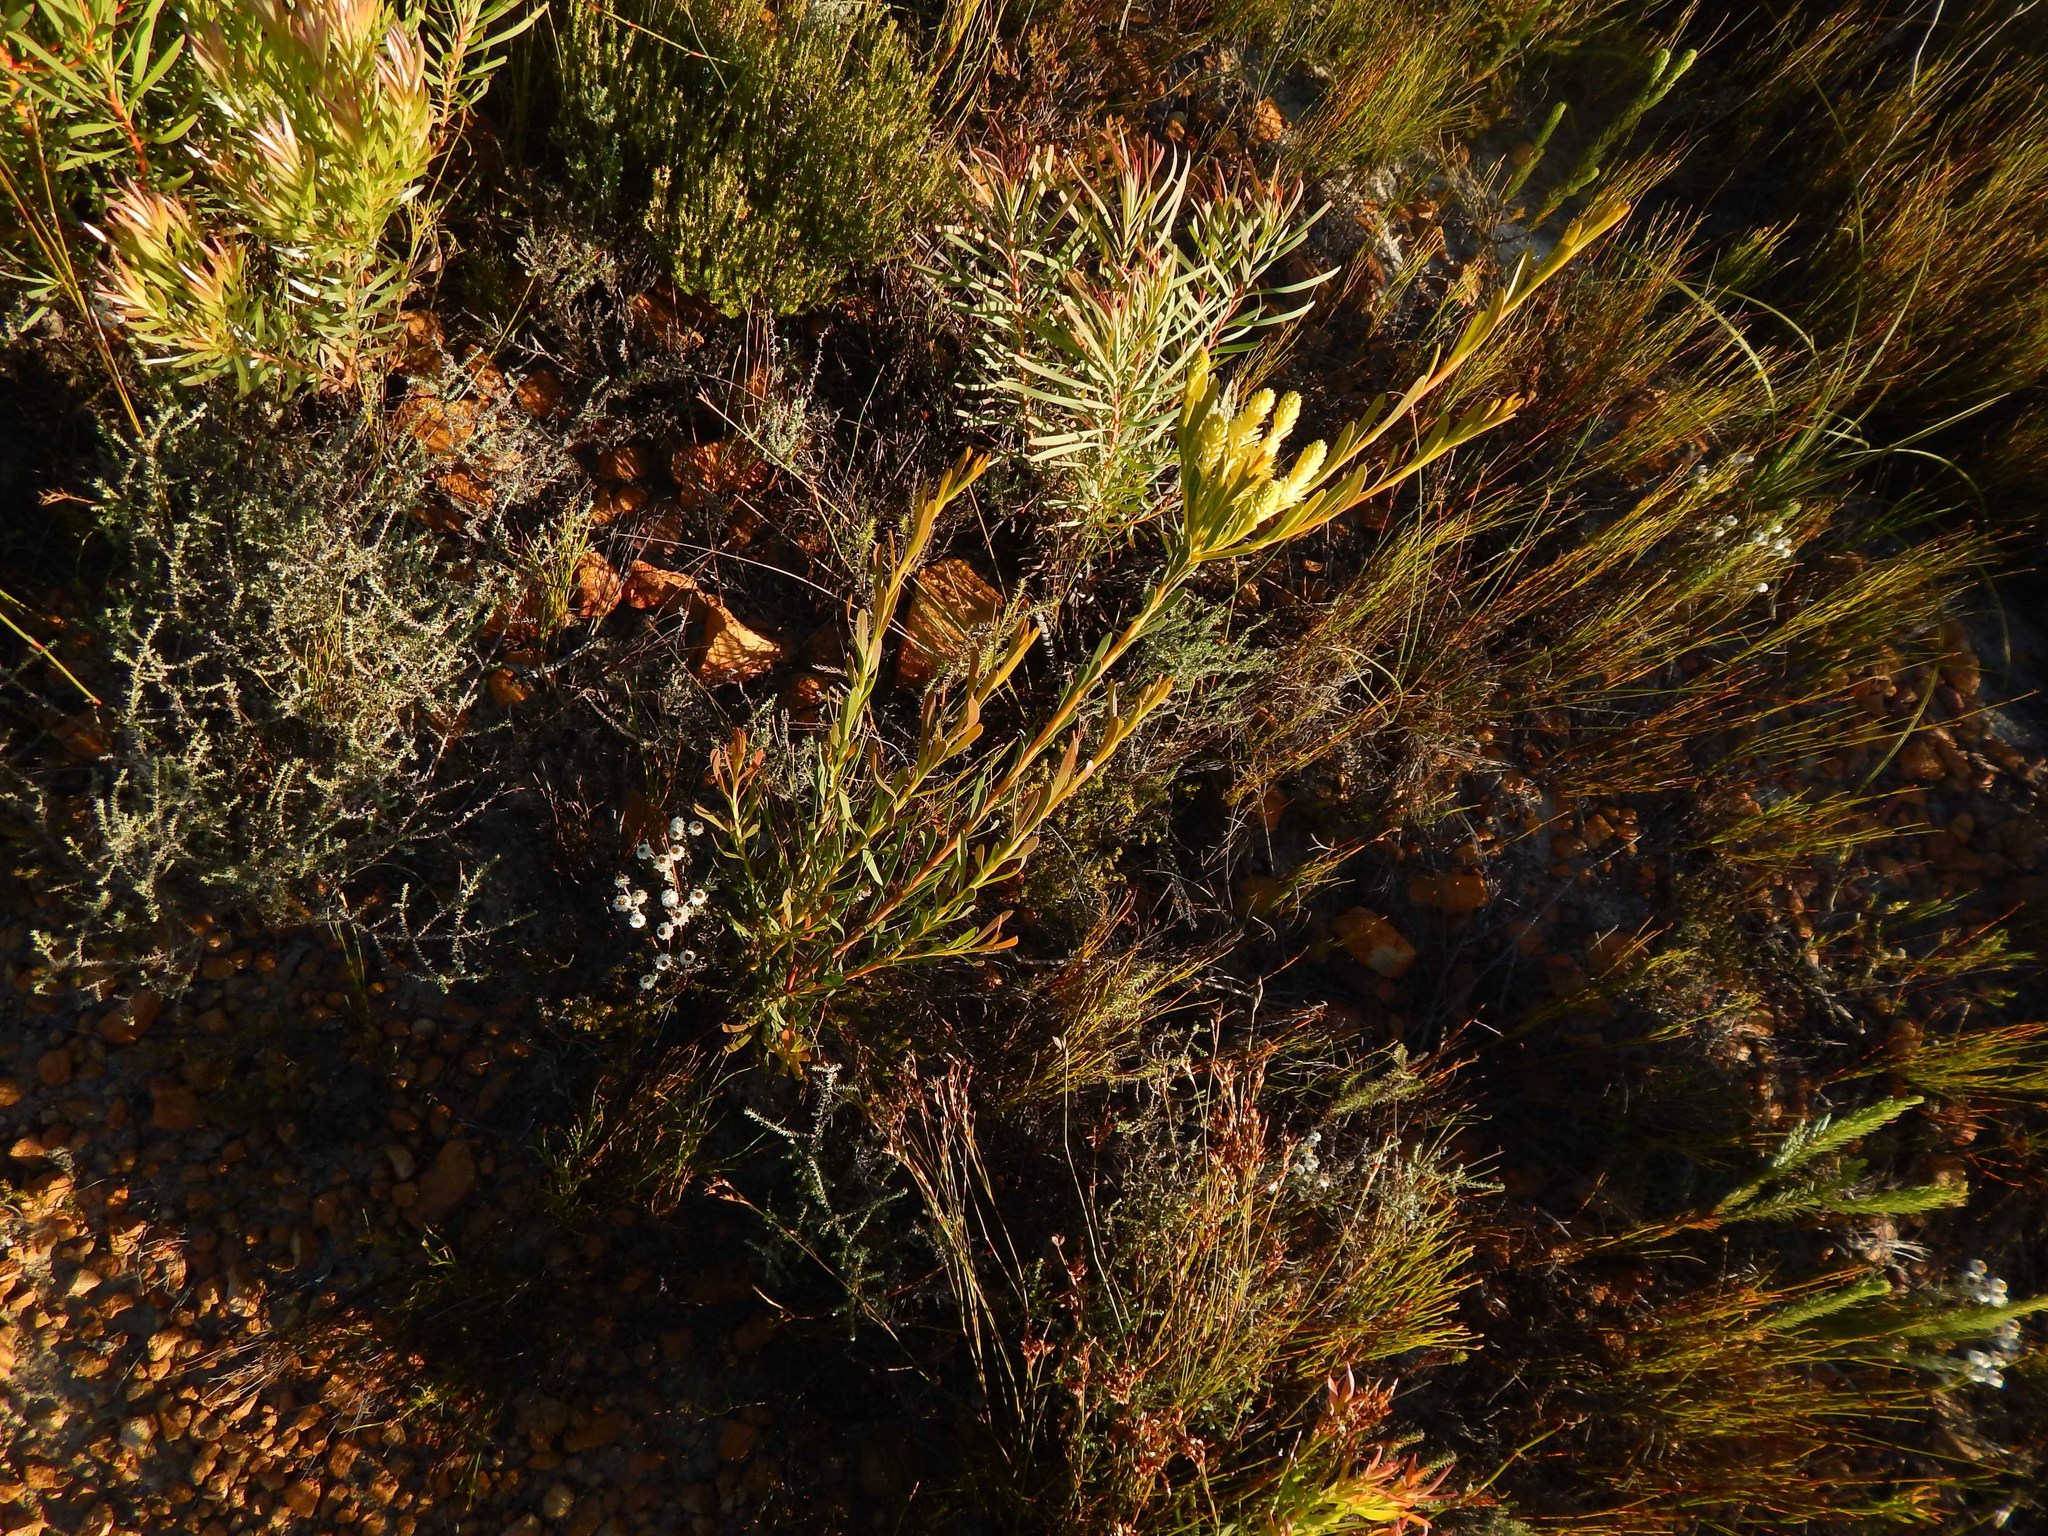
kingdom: Plantae
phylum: Tracheophyta
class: Magnoliopsida
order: Proteales
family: Proteaceae
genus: Aulax
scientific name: Aulax umbellata
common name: Broad-leaf featherbush
